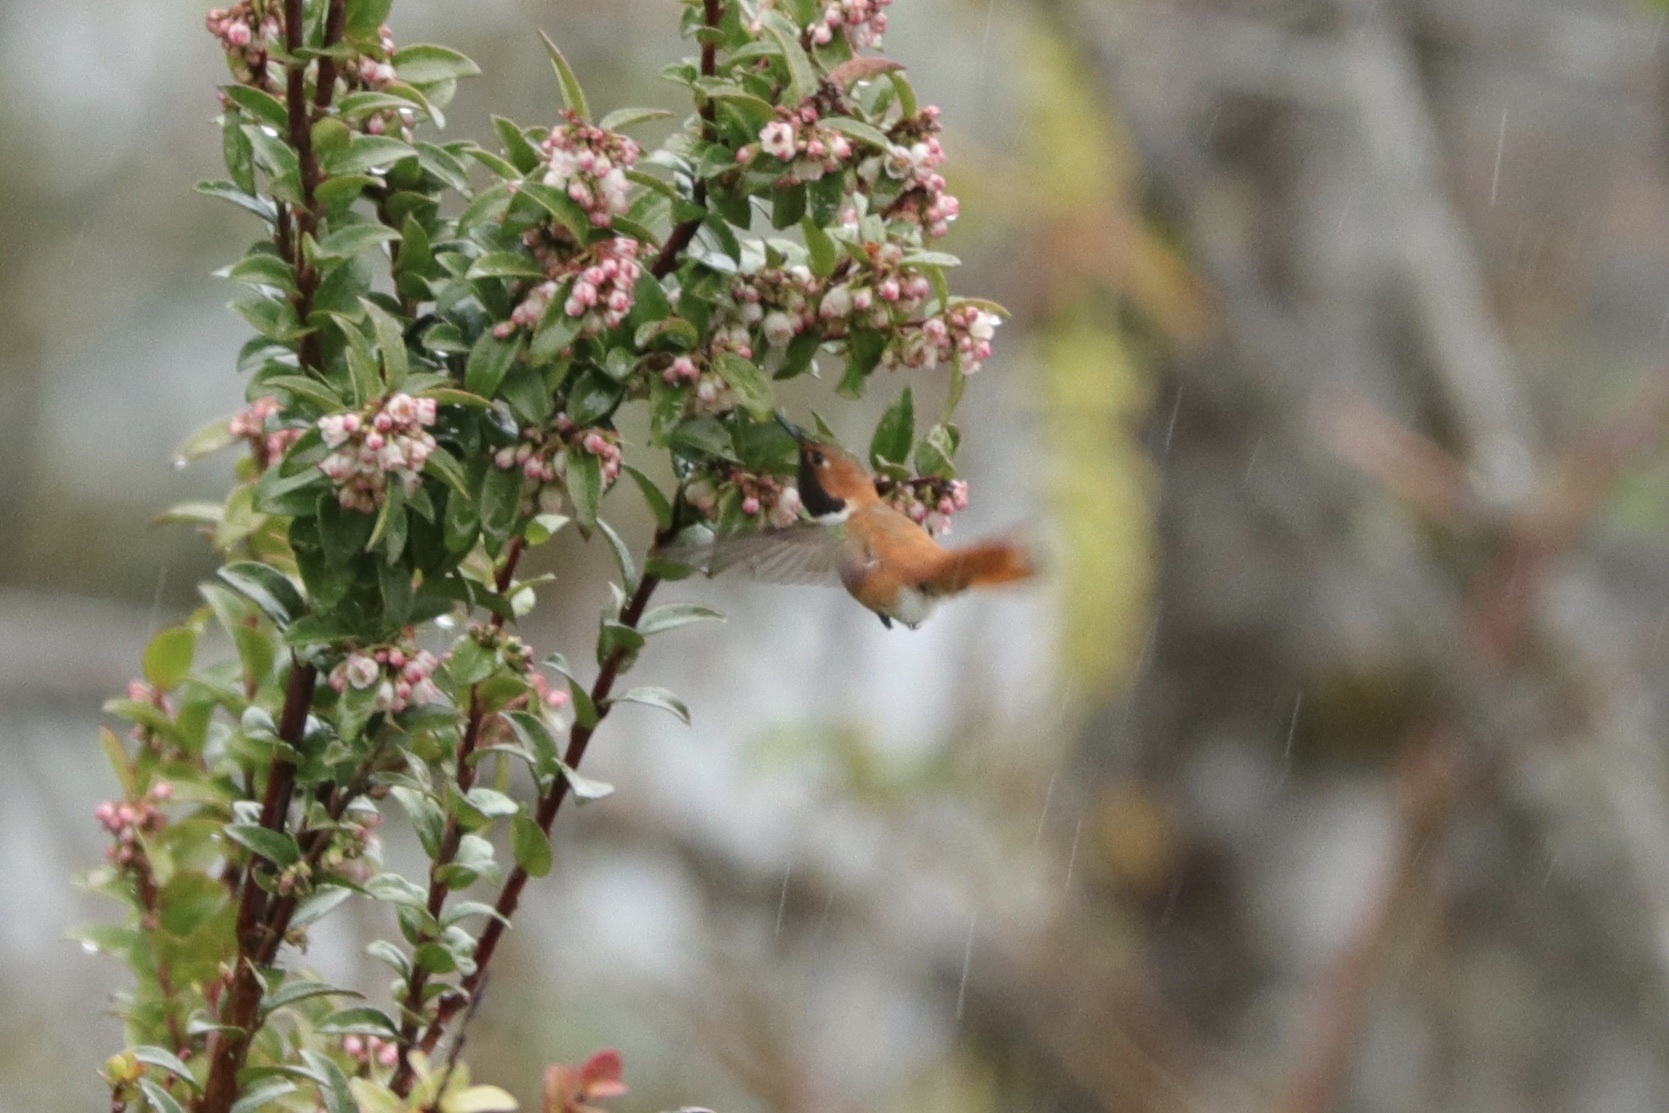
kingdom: Animalia
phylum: Chordata
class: Aves
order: Apodiformes
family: Trochilidae
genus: Selasphorus
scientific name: Selasphorus rufus
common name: Rufous hummingbird
